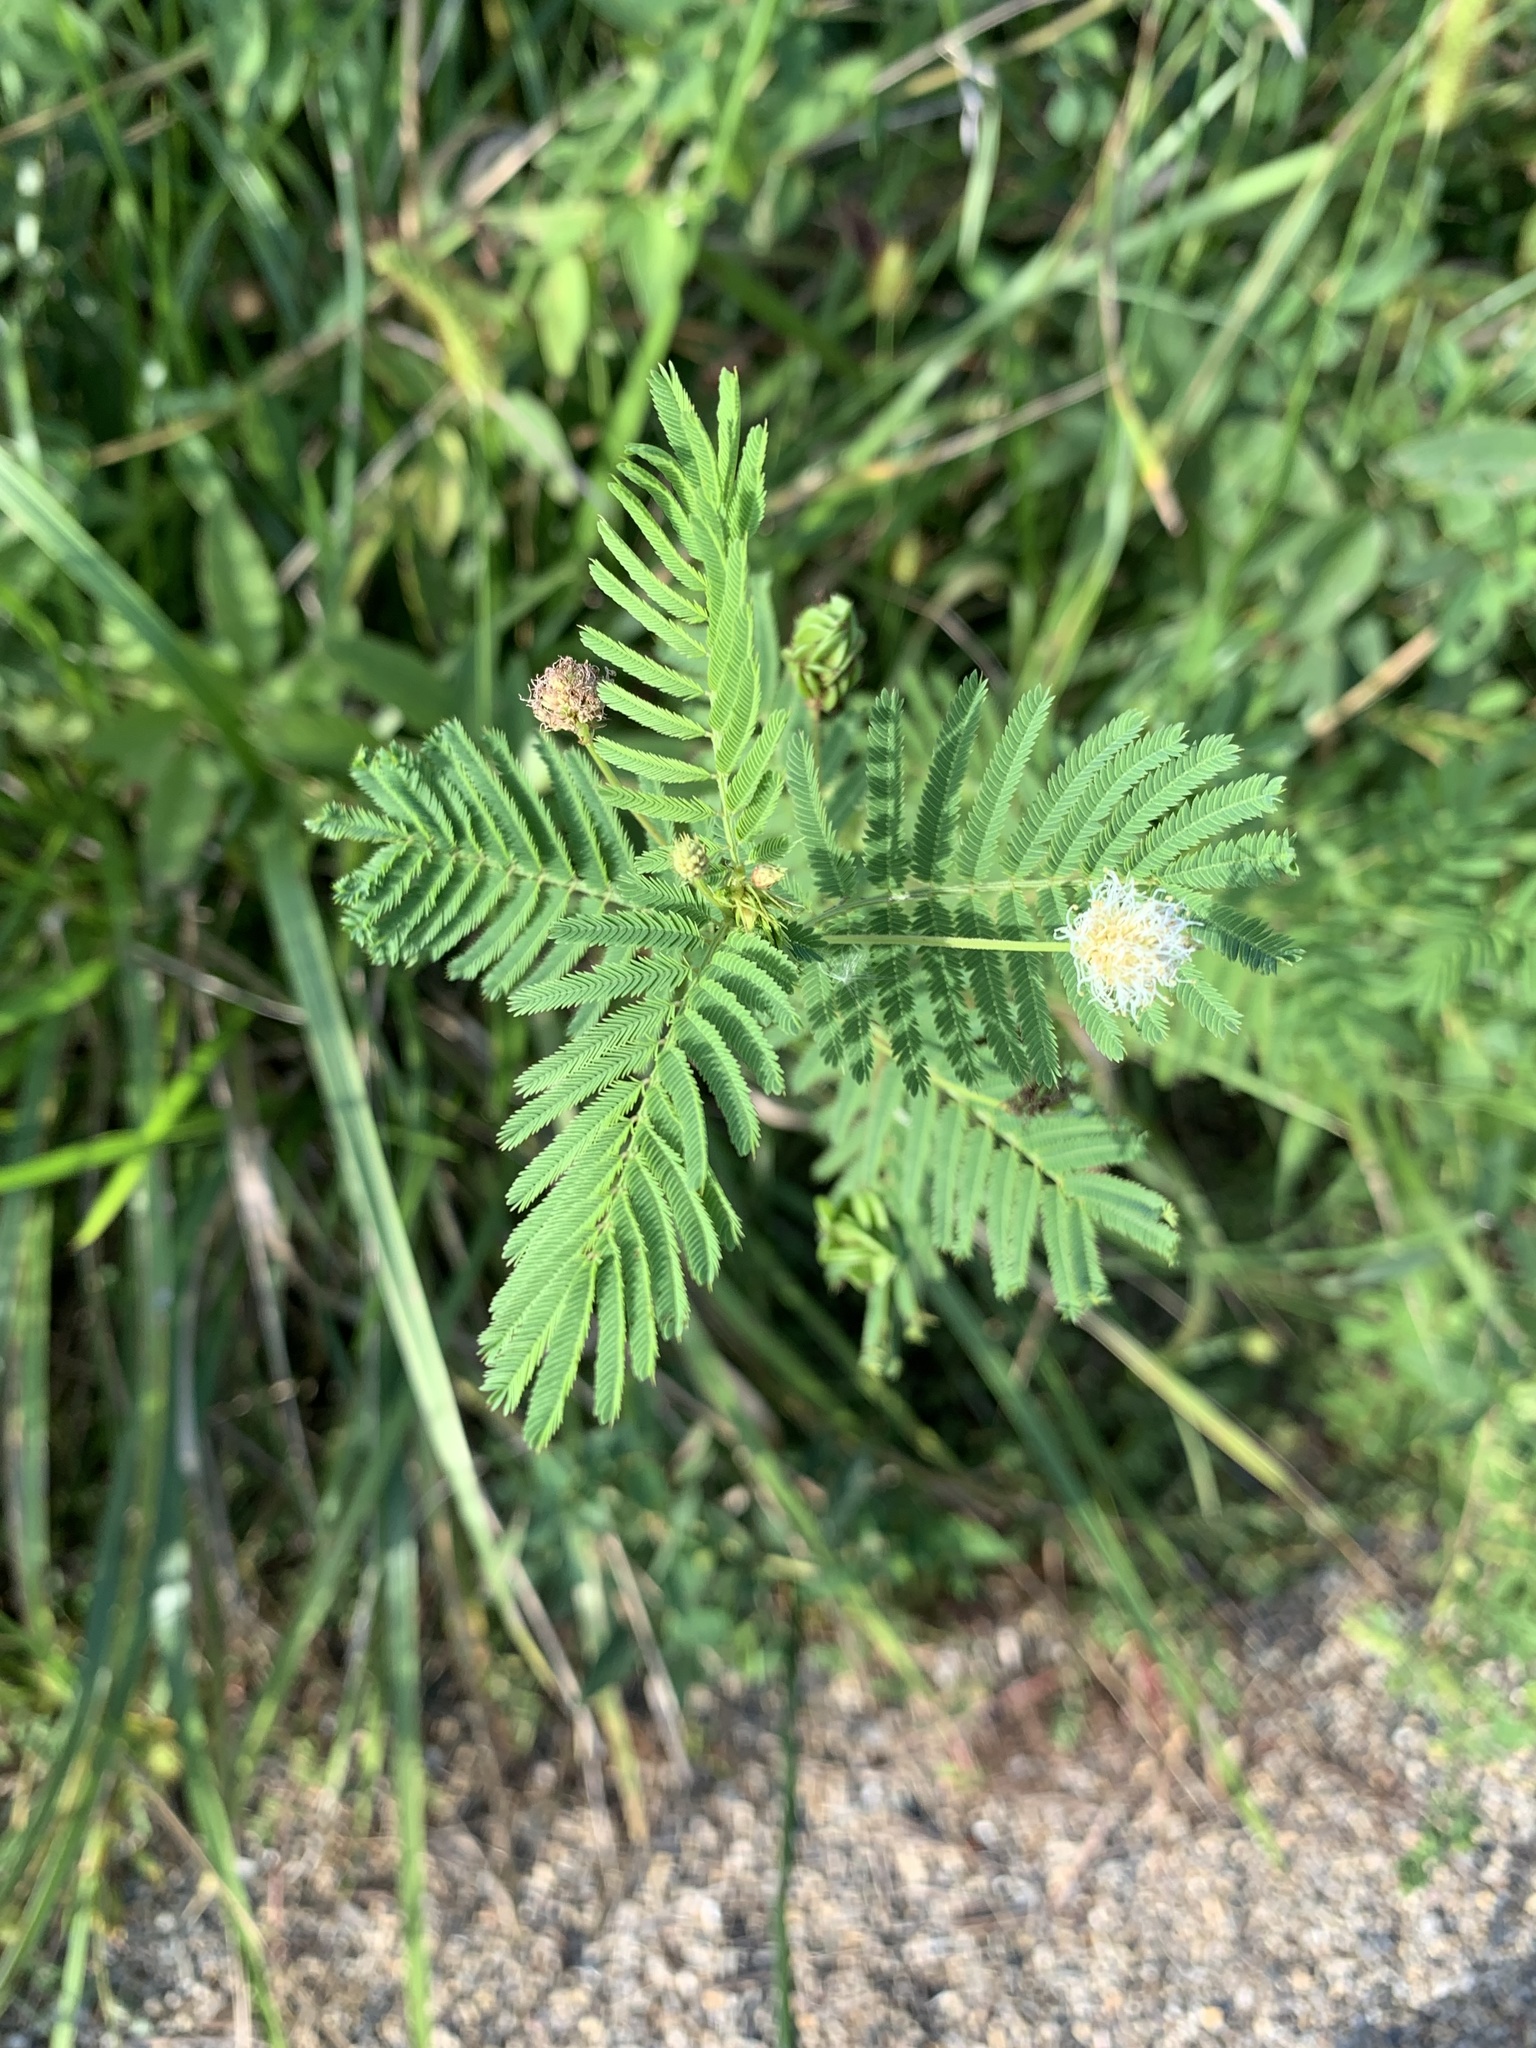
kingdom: Plantae
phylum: Tracheophyta
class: Magnoliopsida
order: Fabales
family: Fabaceae
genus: Desmanthus
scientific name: Desmanthus illinoensis
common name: Illinois bundle-flower
